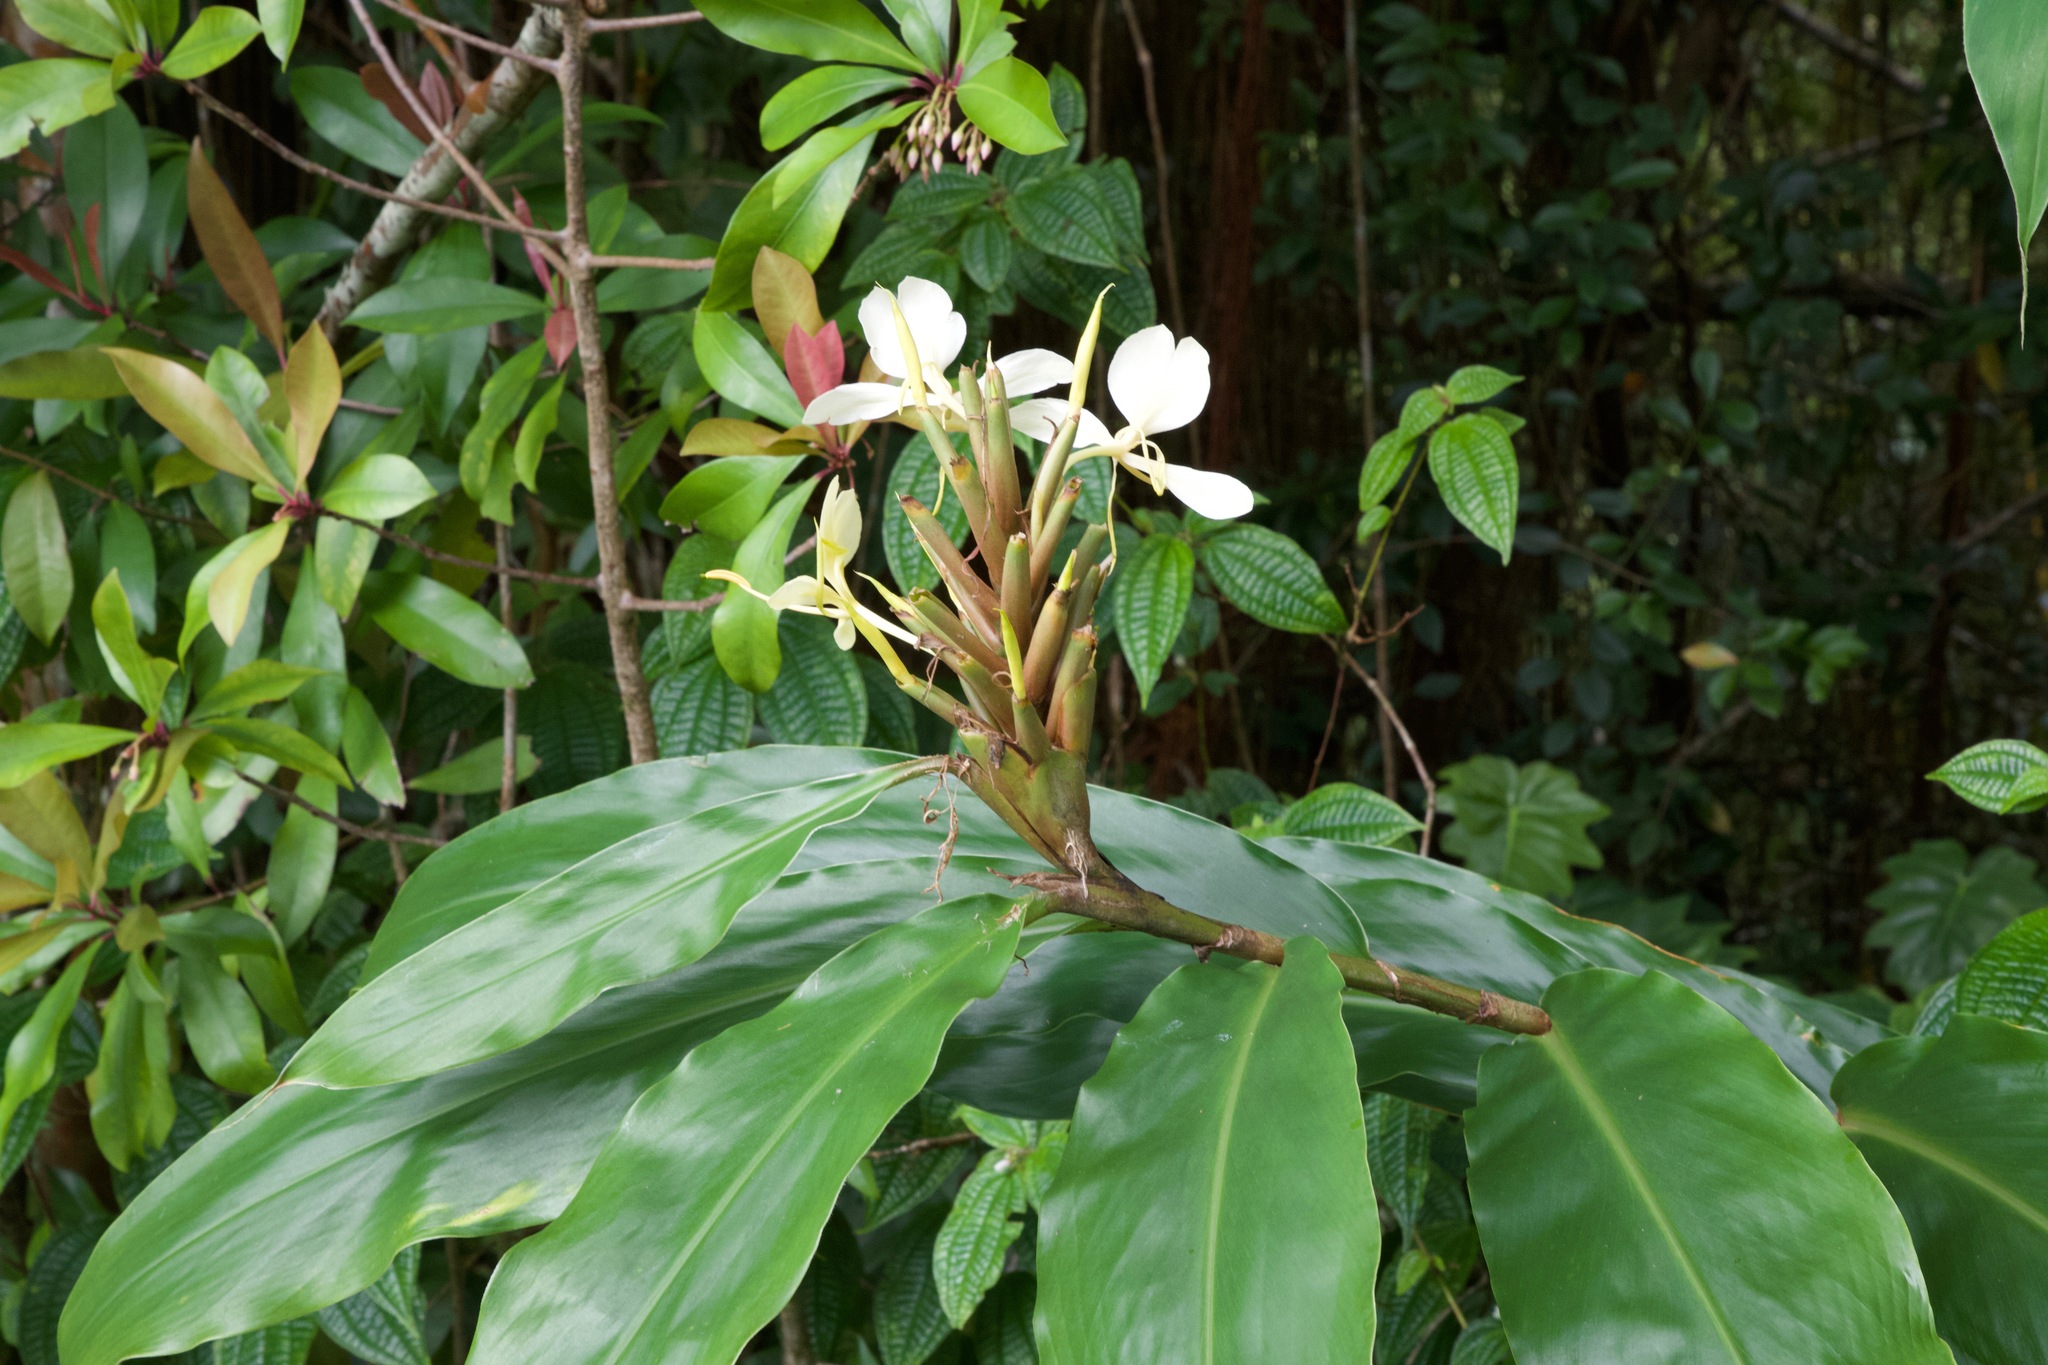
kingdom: Plantae
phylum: Tracheophyta
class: Liliopsida
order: Zingiberales
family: Zingiberaceae
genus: Hedychium
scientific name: Hedychium flavescens
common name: Yellow ginger
